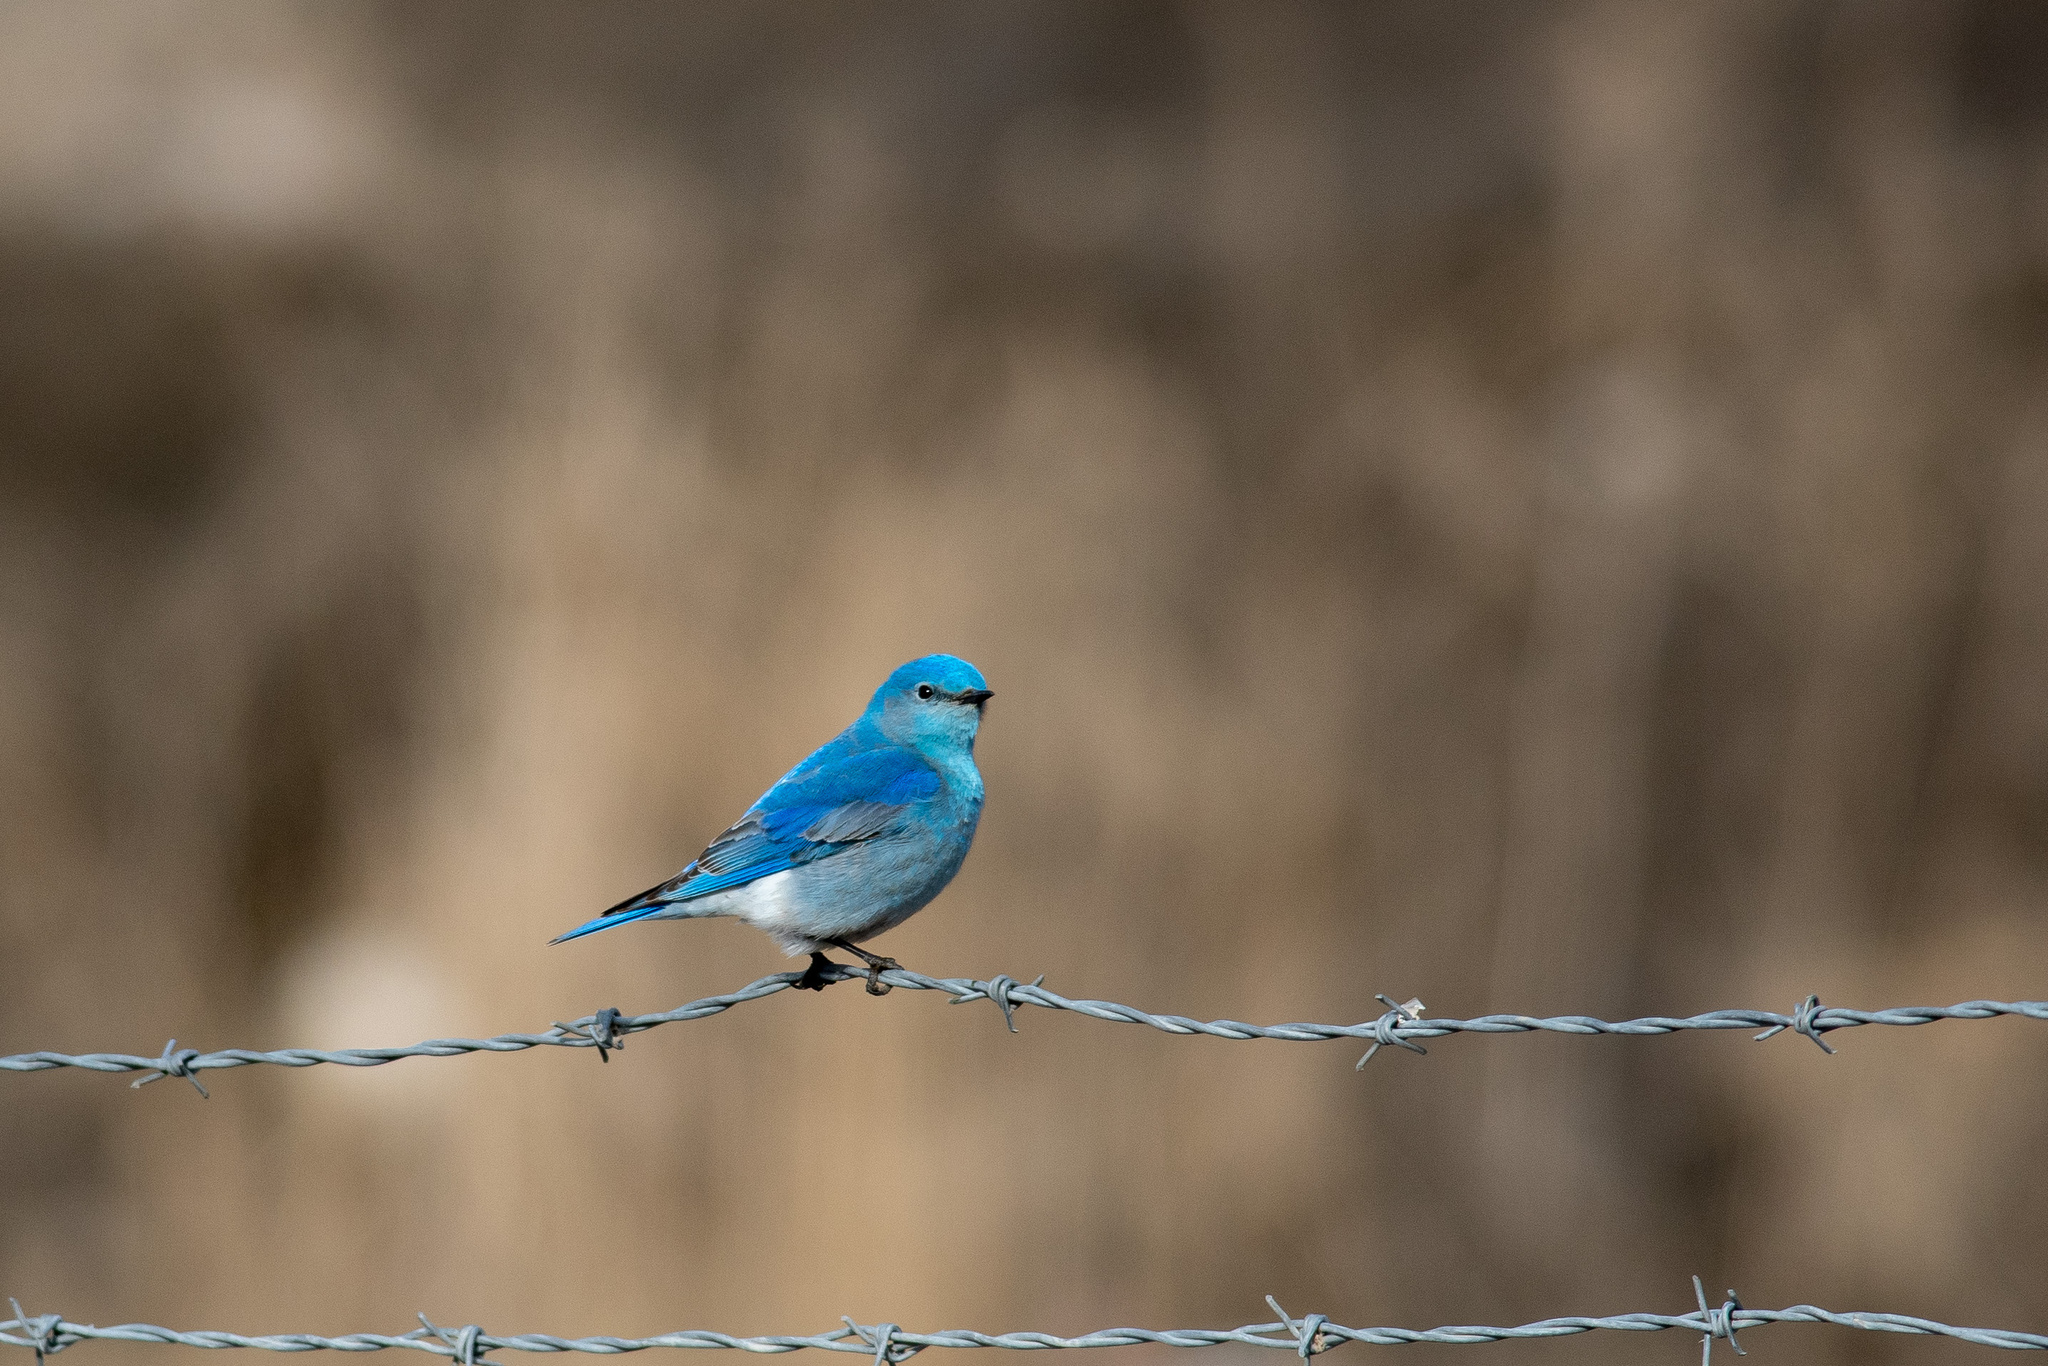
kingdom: Animalia
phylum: Chordata
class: Aves
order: Passeriformes
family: Turdidae
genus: Sialia
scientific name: Sialia currucoides
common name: Mountain bluebird
